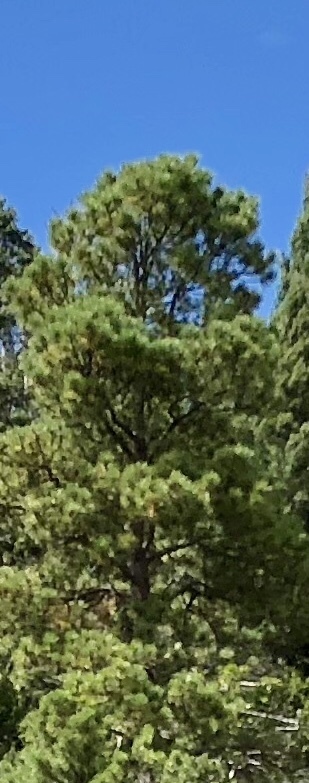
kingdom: Plantae
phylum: Tracheophyta
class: Pinopsida
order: Pinales
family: Pinaceae
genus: Pinus
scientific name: Pinus ponderosa
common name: Western yellow-pine
